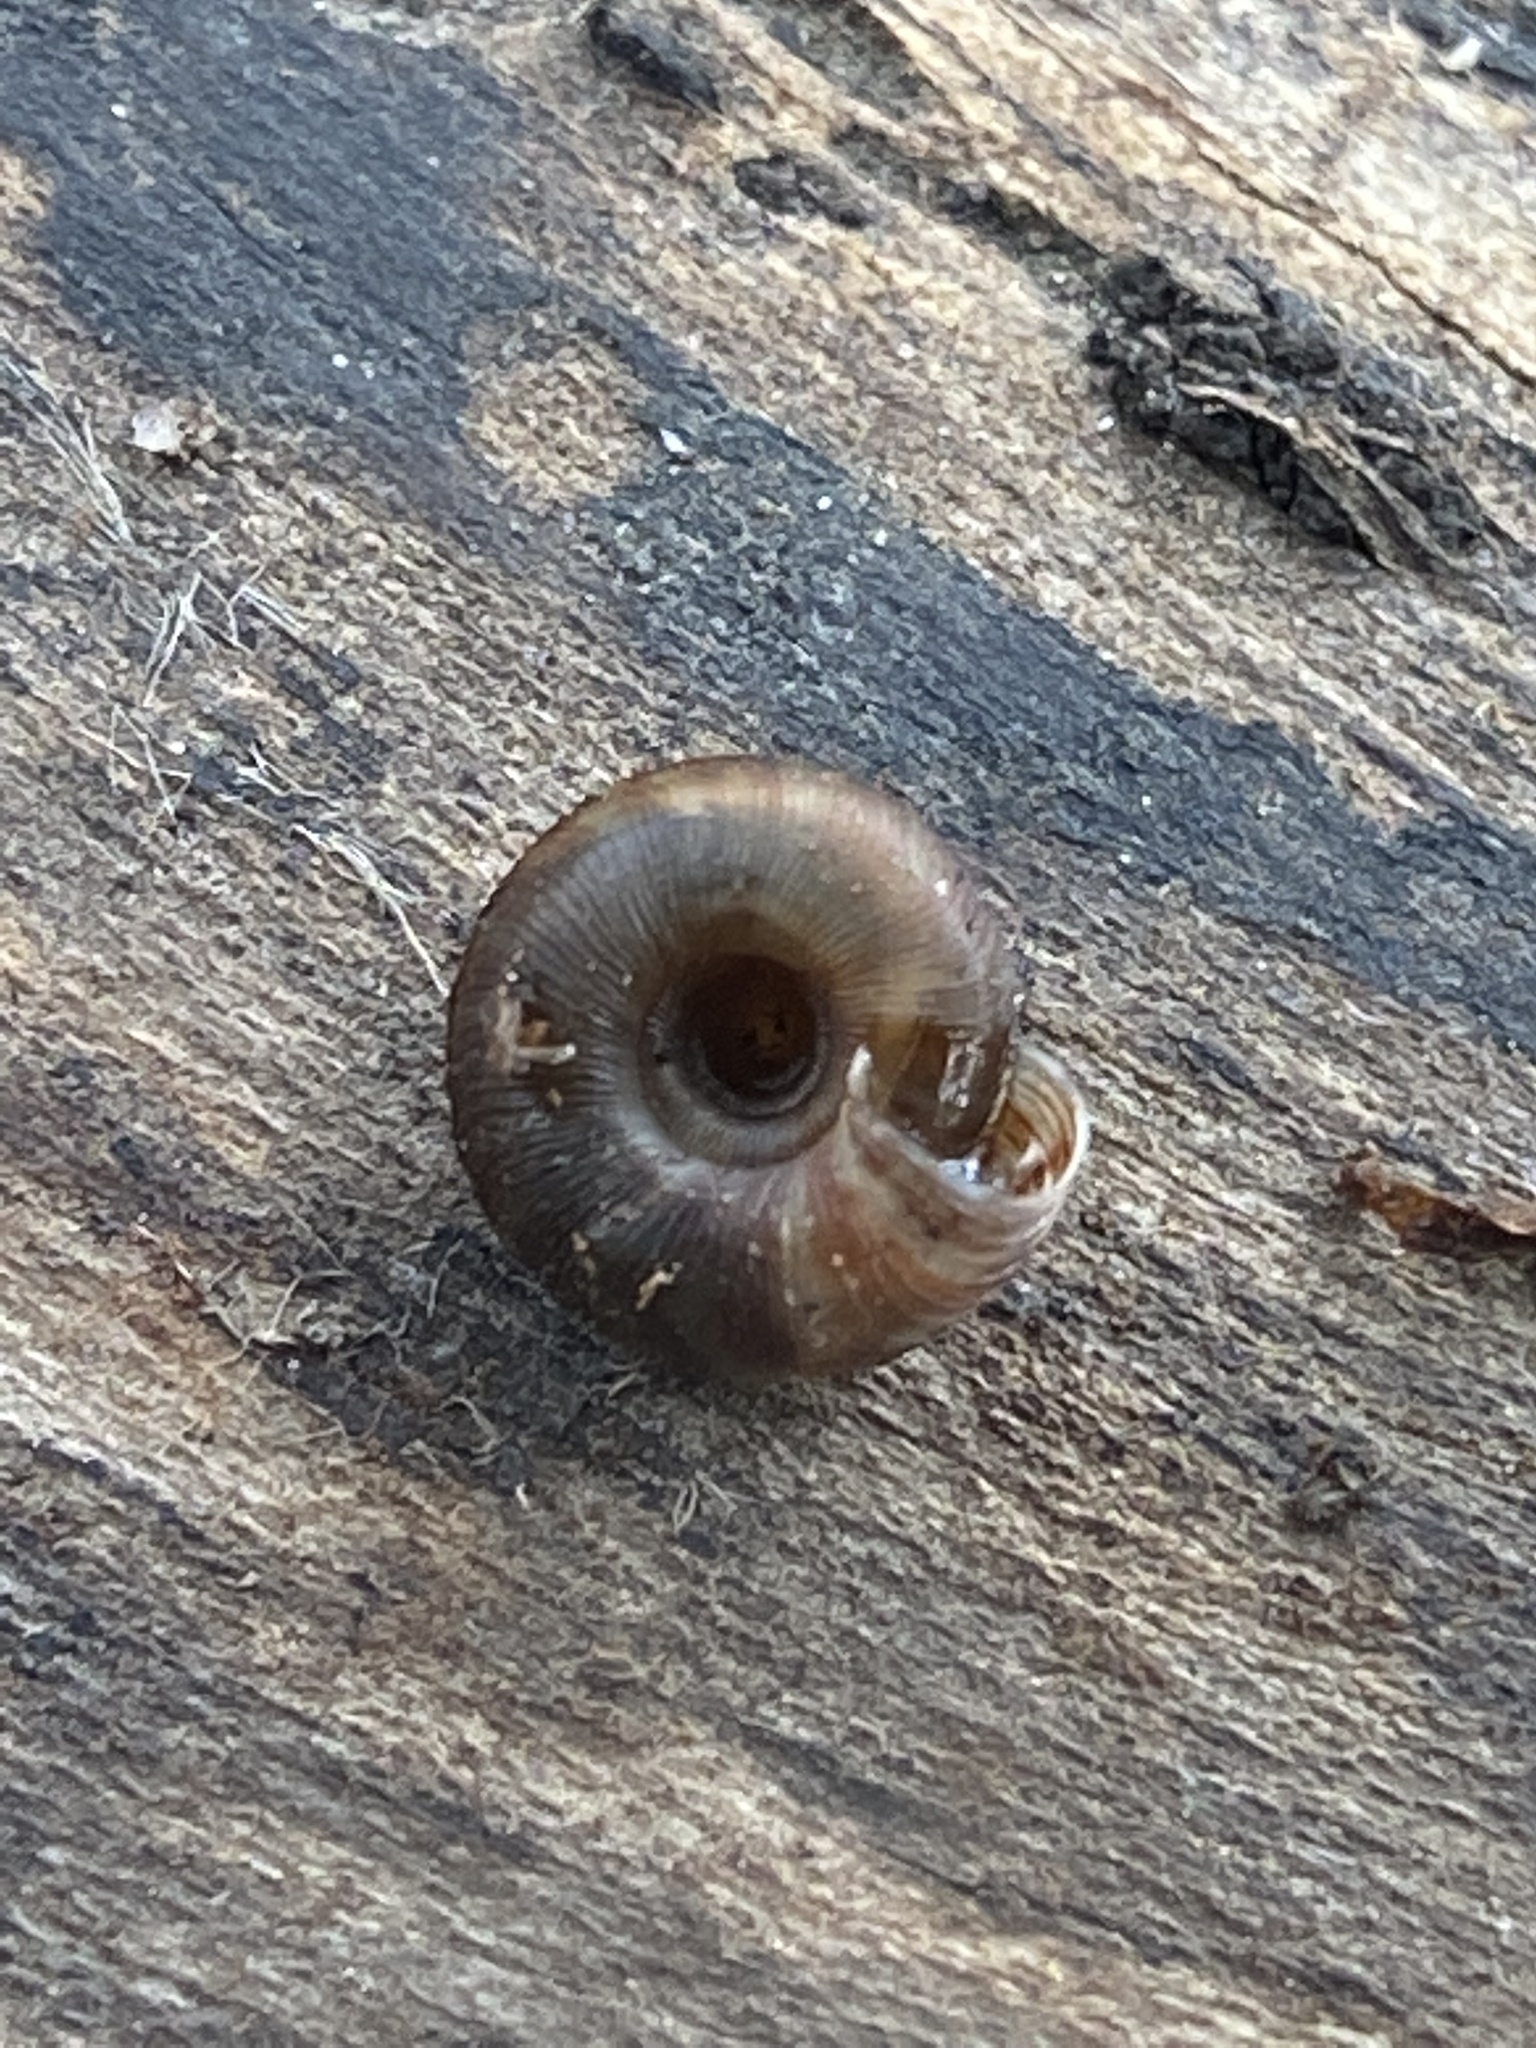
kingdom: Animalia
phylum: Mollusca
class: Gastropoda
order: Stylommatophora
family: Discidae
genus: Discus
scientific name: Discus rotundatus
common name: Rounded snail
